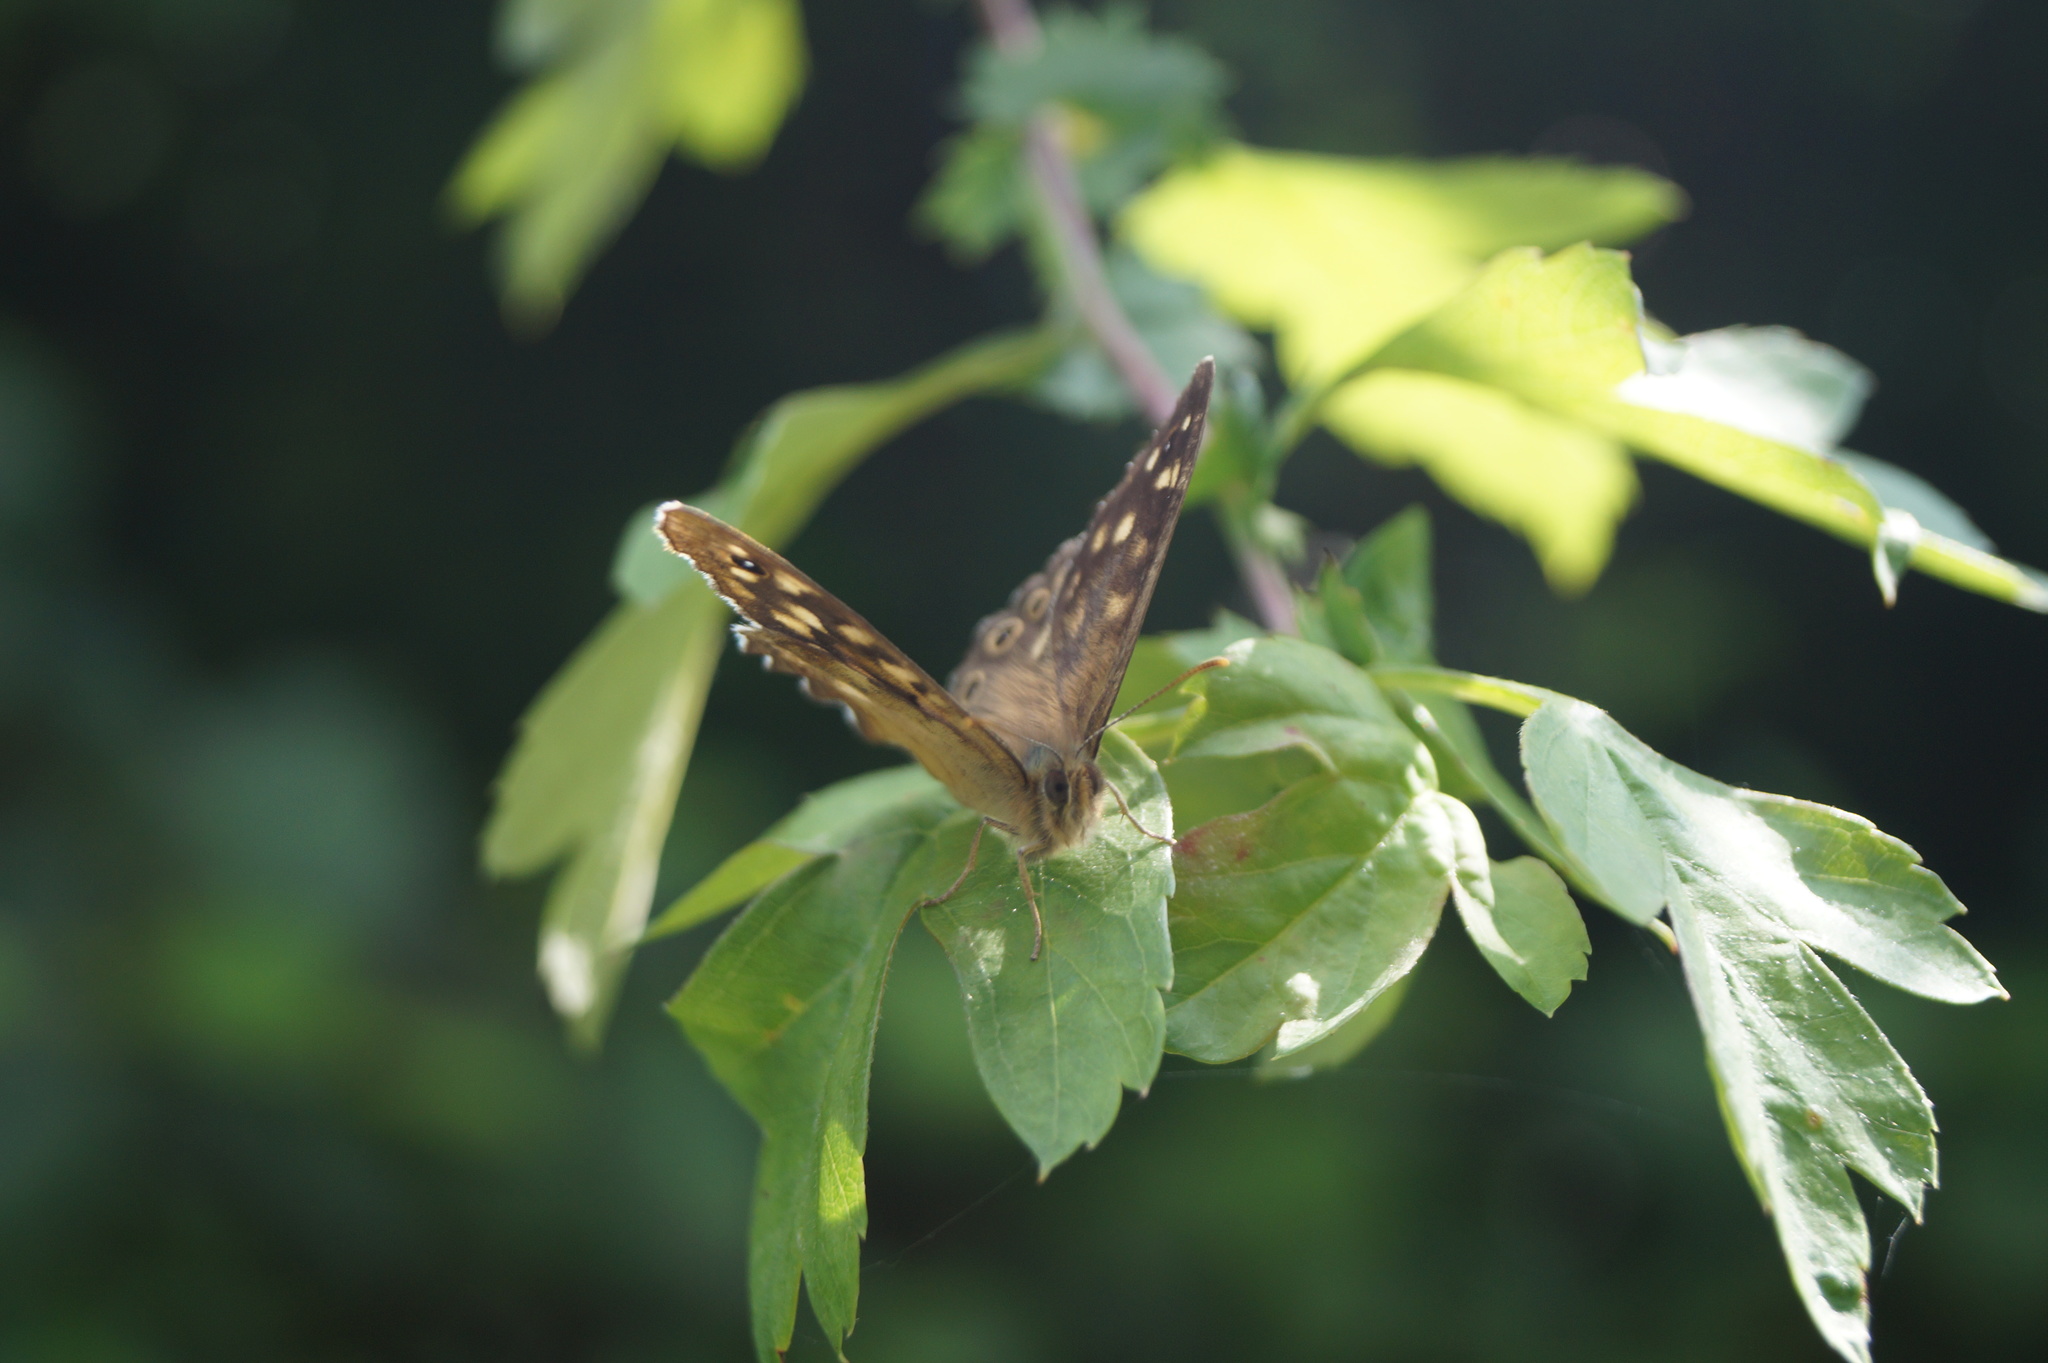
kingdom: Animalia
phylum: Arthropoda
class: Insecta
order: Lepidoptera
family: Nymphalidae
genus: Pararge
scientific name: Pararge aegeria
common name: Speckled wood
